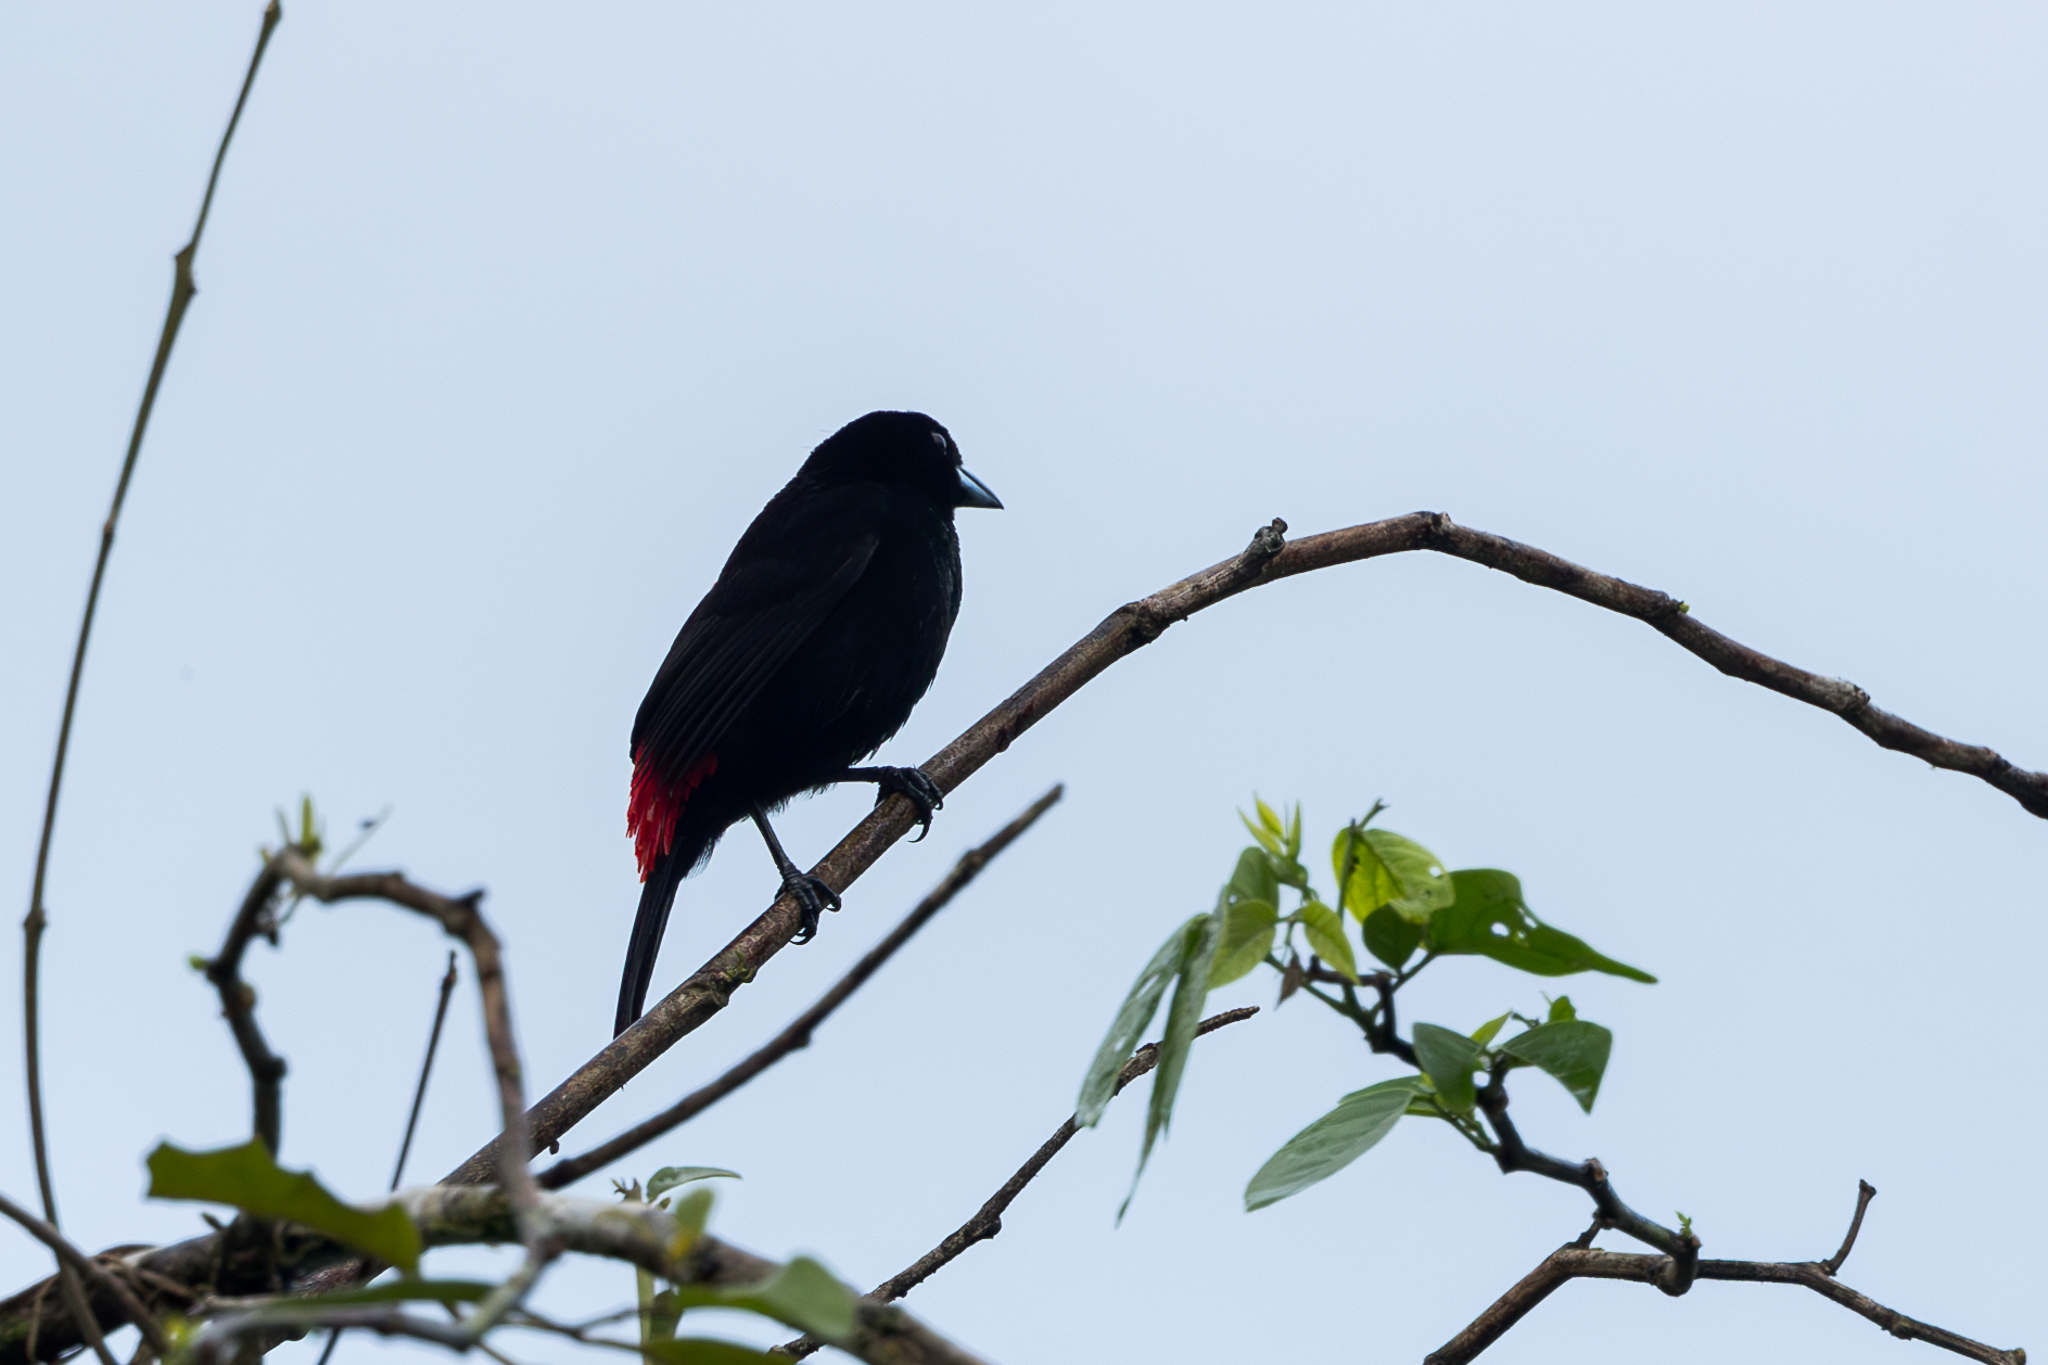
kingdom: Animalia
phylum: Chordata
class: Aves
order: Passeriformes
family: Thraupidae
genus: Ramphocelus
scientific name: Ramphocelus passerinii
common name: Passerini's tanager
